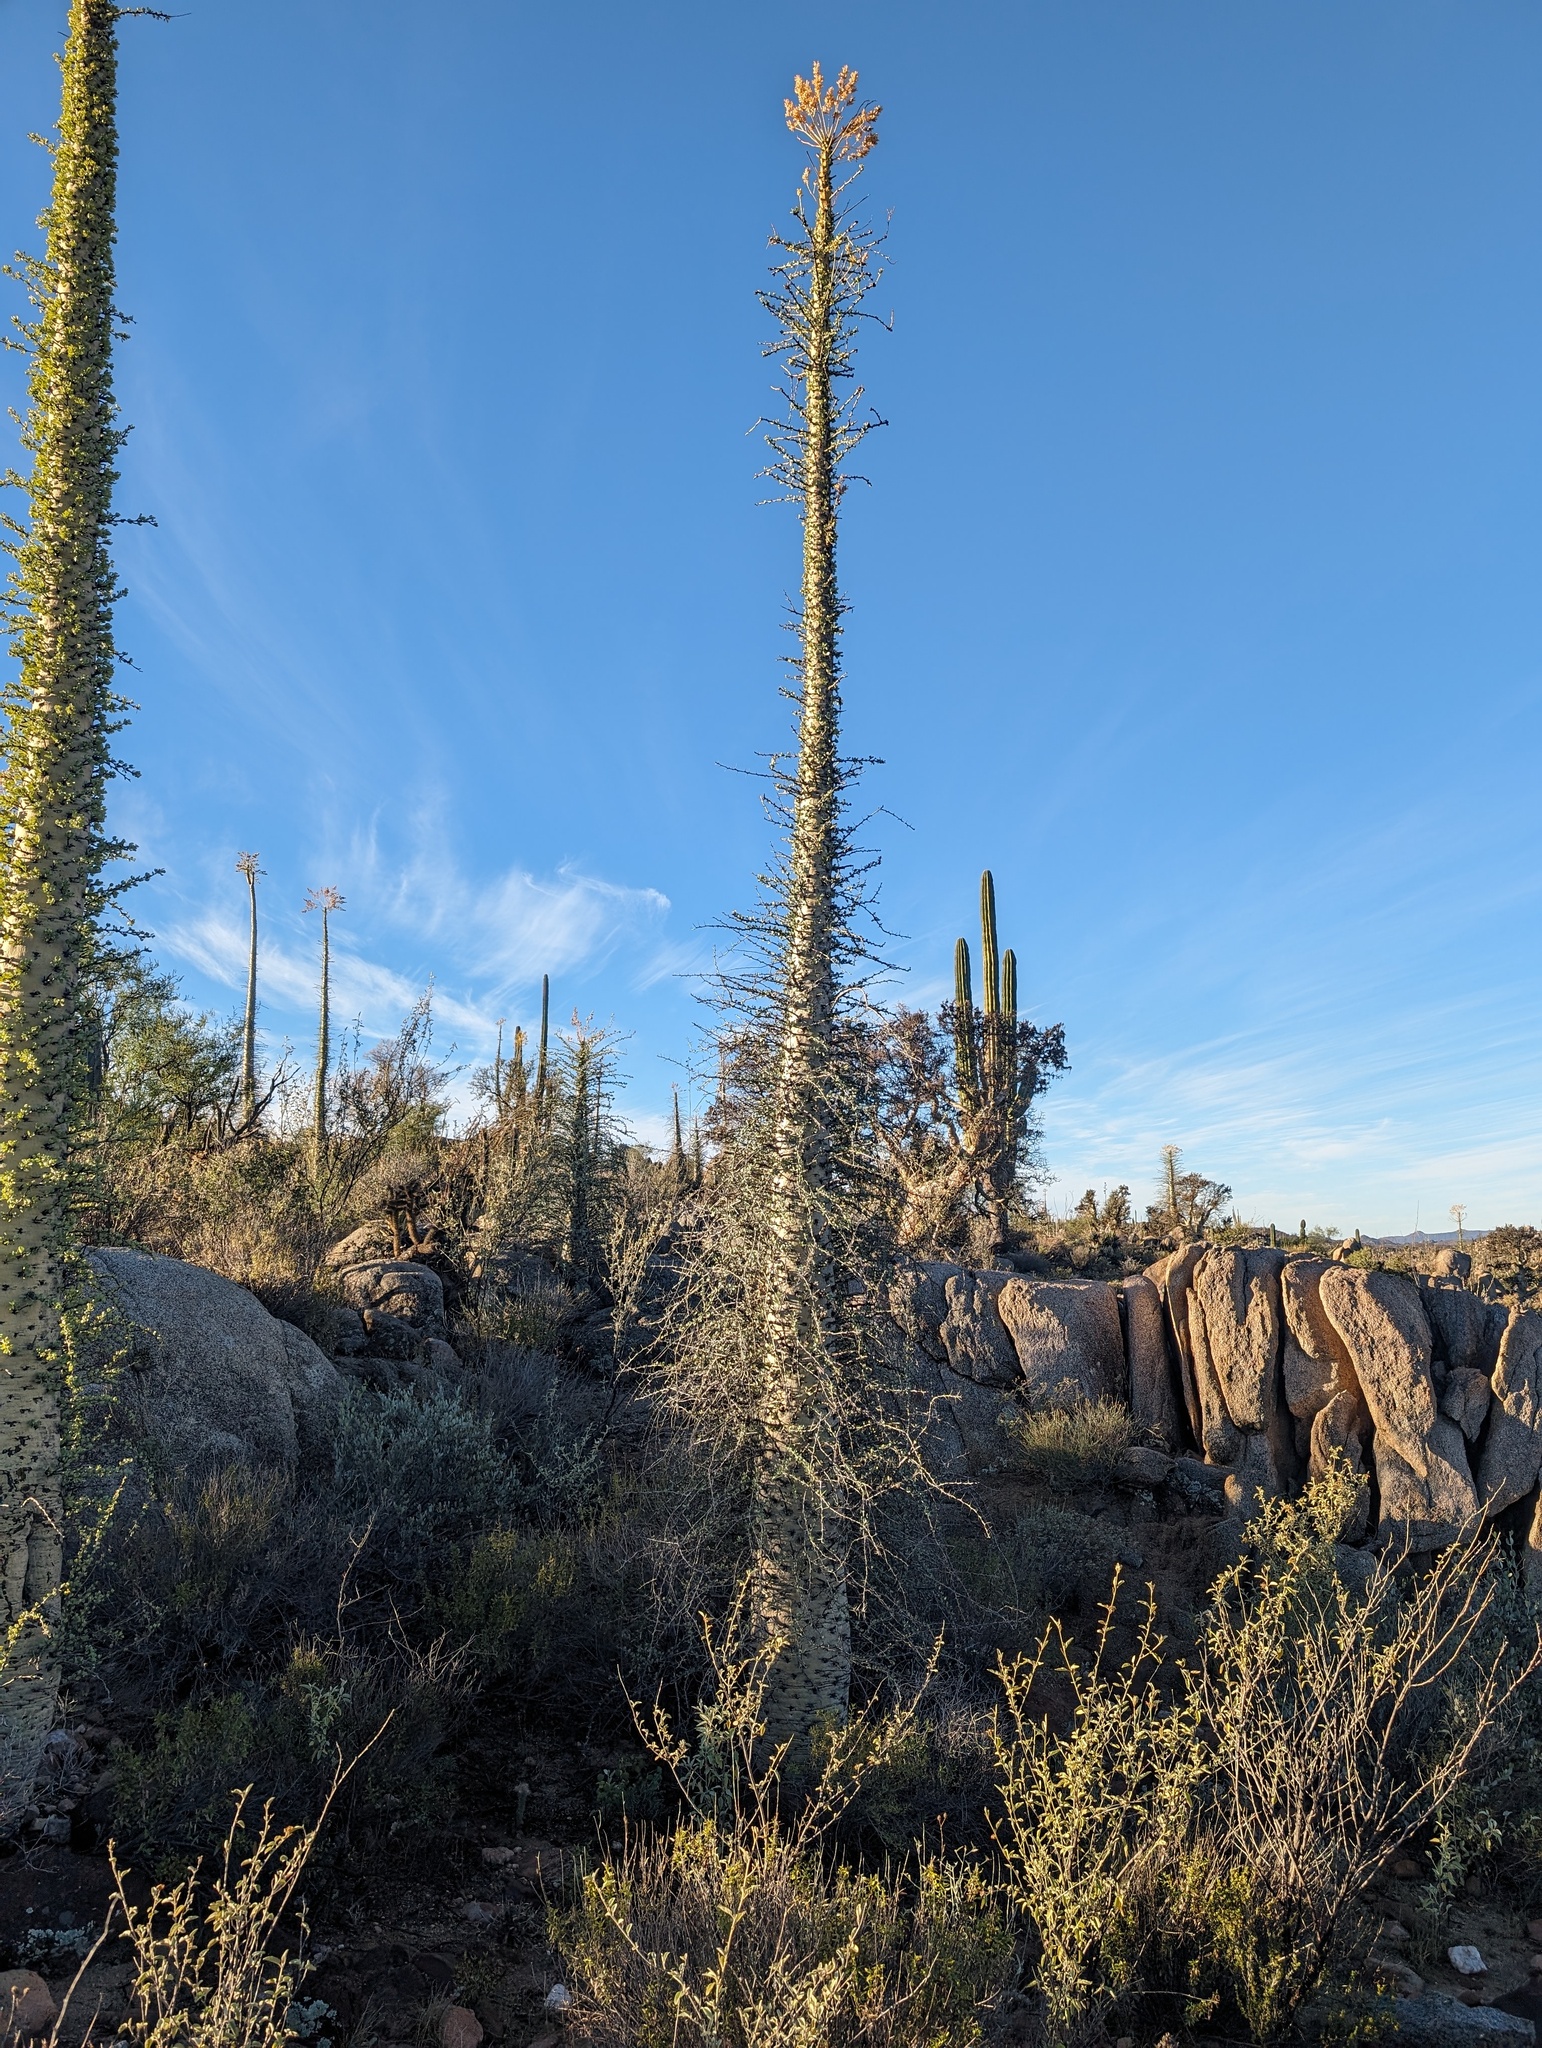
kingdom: Plantae
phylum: Tracheophyta
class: Magnoliopsida
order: Ericales
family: Fouquieriaceae
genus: Fouquieria
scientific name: Fouquieria columnaris
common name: Boojumtree
